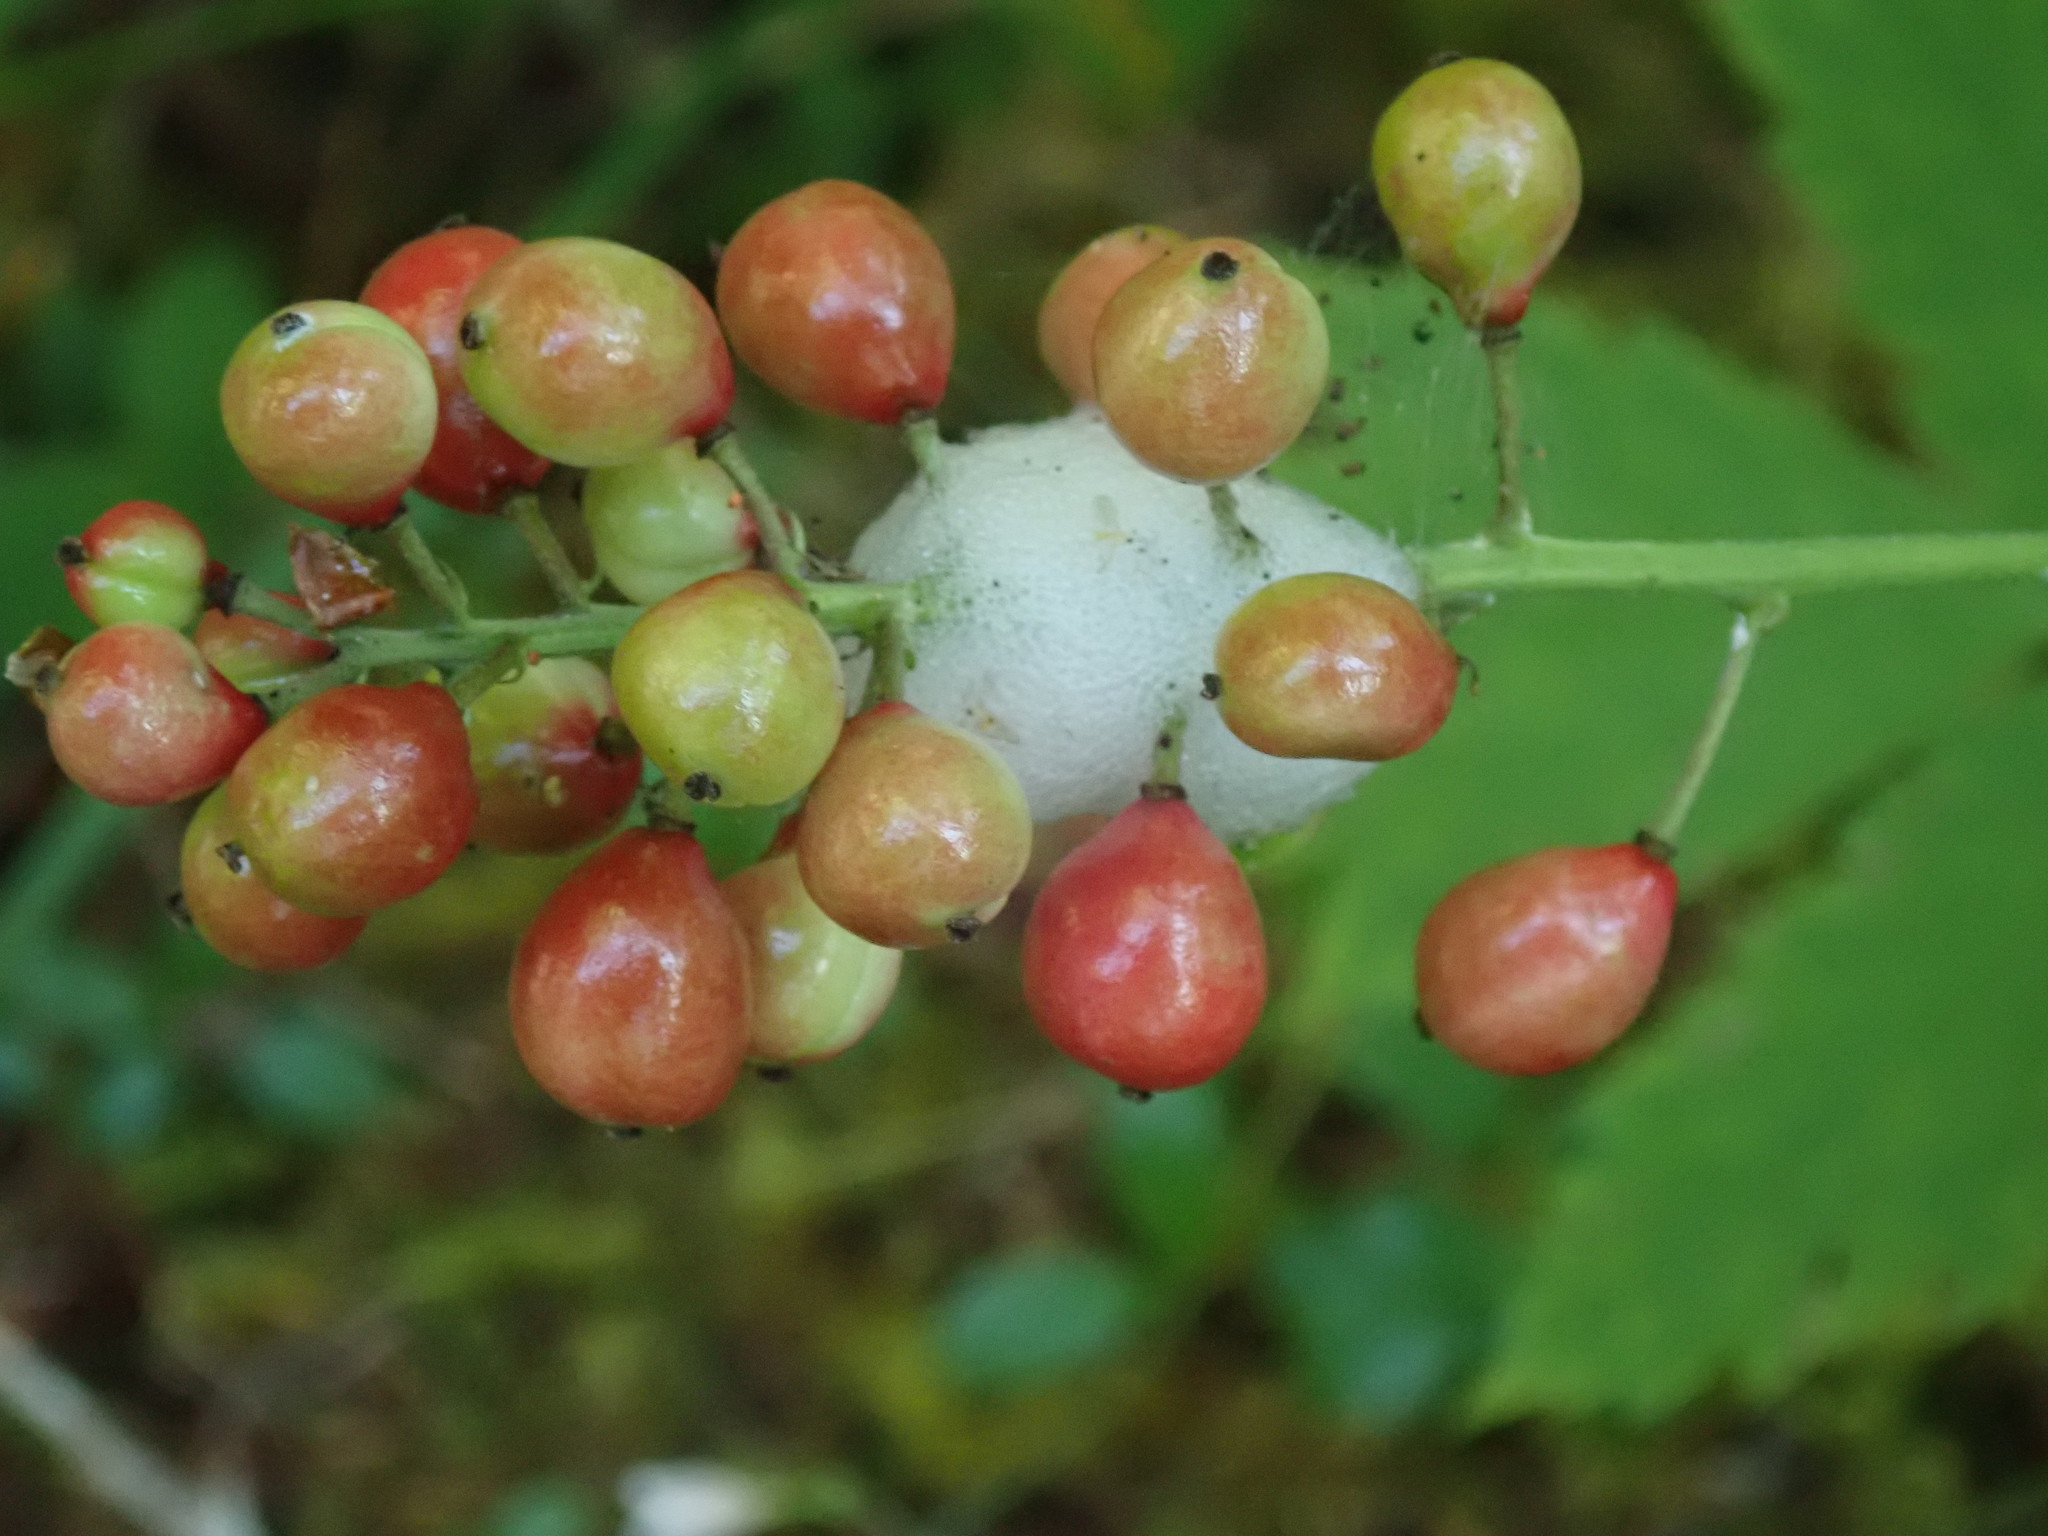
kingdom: Plantae
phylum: Tracheophyta
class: Magnoliopsida
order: Ranunculales
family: Ranunculaceae
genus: Actaea
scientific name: Actaea rubra
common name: Red baneberry
